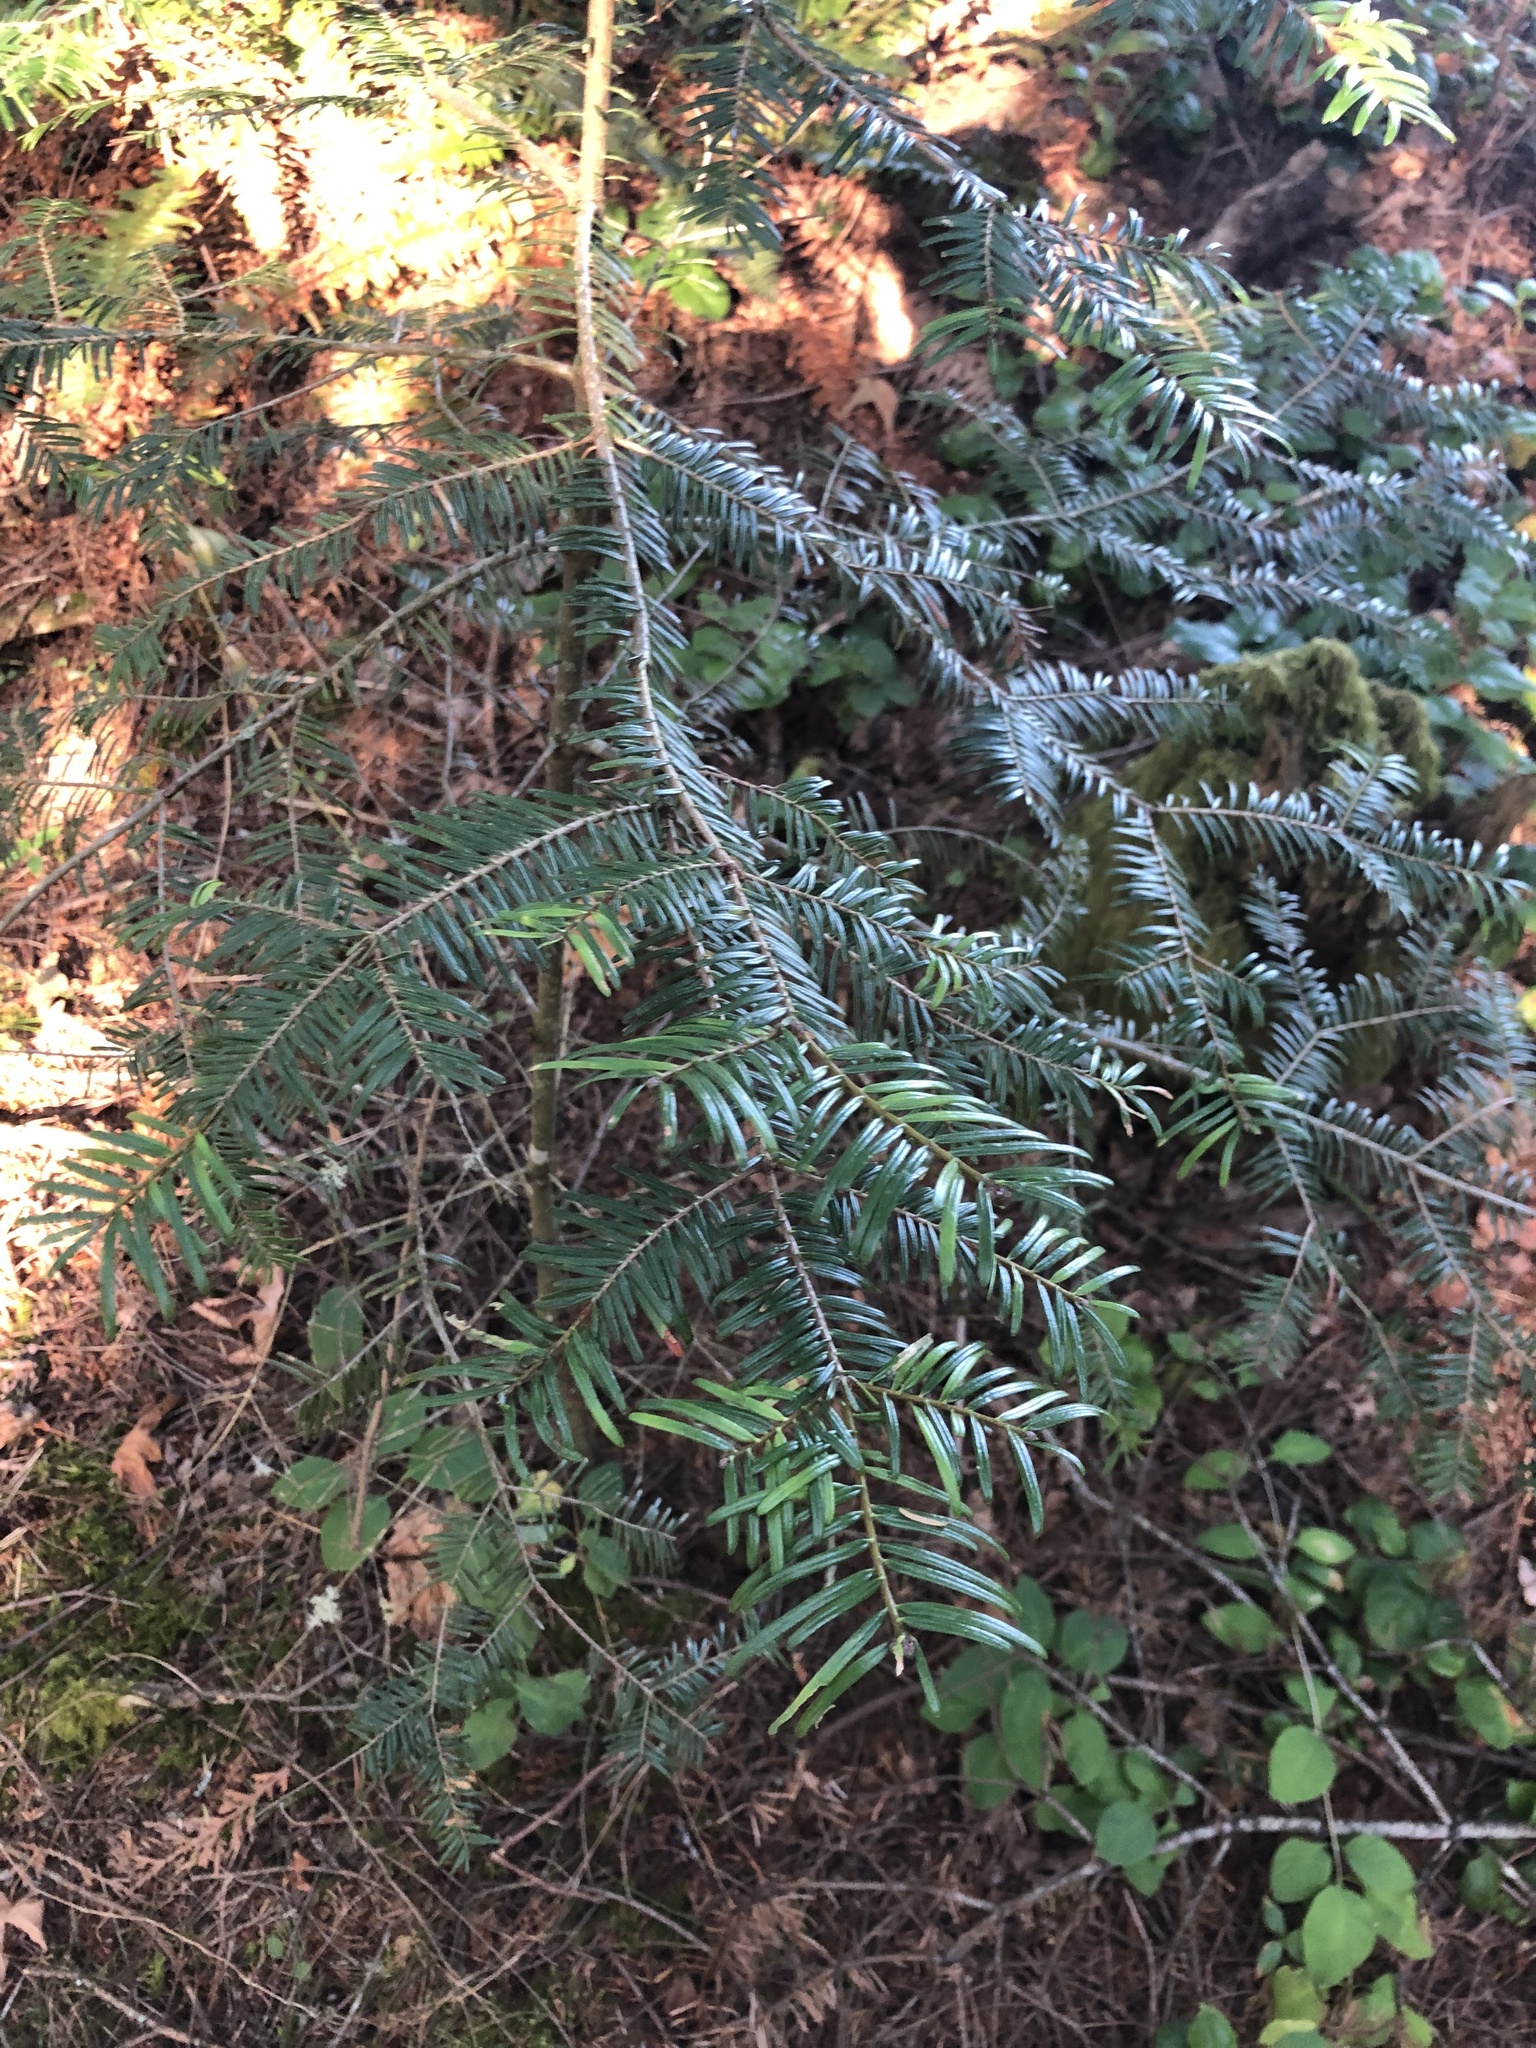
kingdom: Plantae
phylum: Tracheophyta
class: Pinopsida
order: Pinales
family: Pinaceae
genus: Abies
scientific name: Abies grandis
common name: Giant fir
